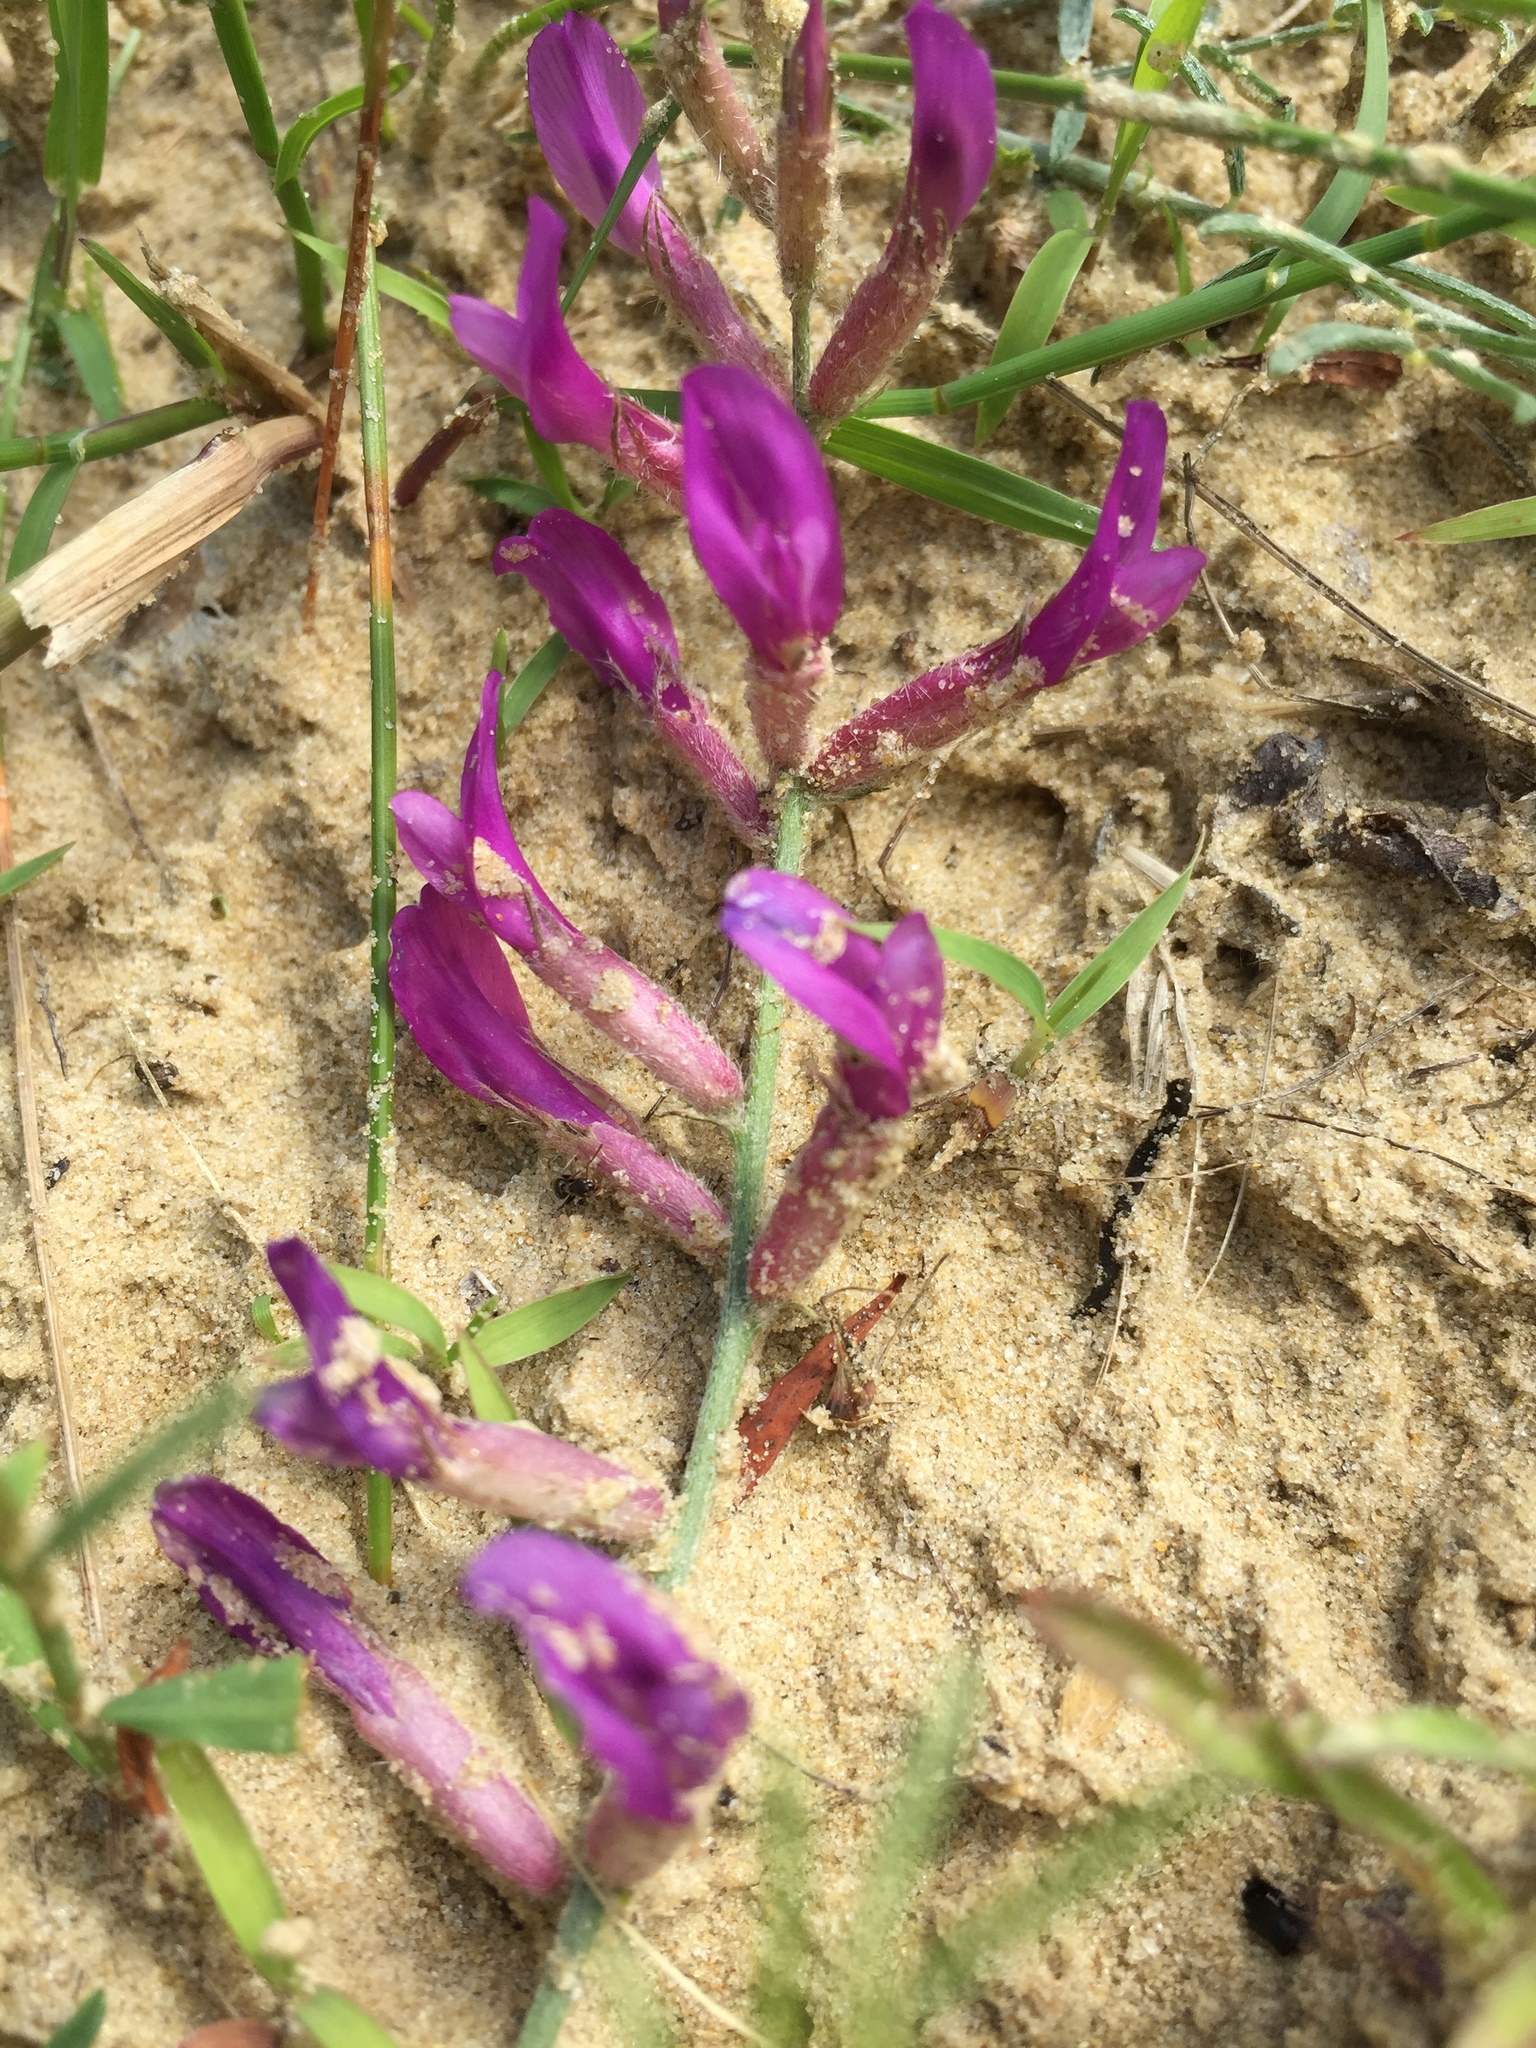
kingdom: Plantae
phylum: Tracheophyta
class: Magnoliopsida
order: Fabales
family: Fabaceae
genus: Astragalus
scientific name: Astragalus varius
